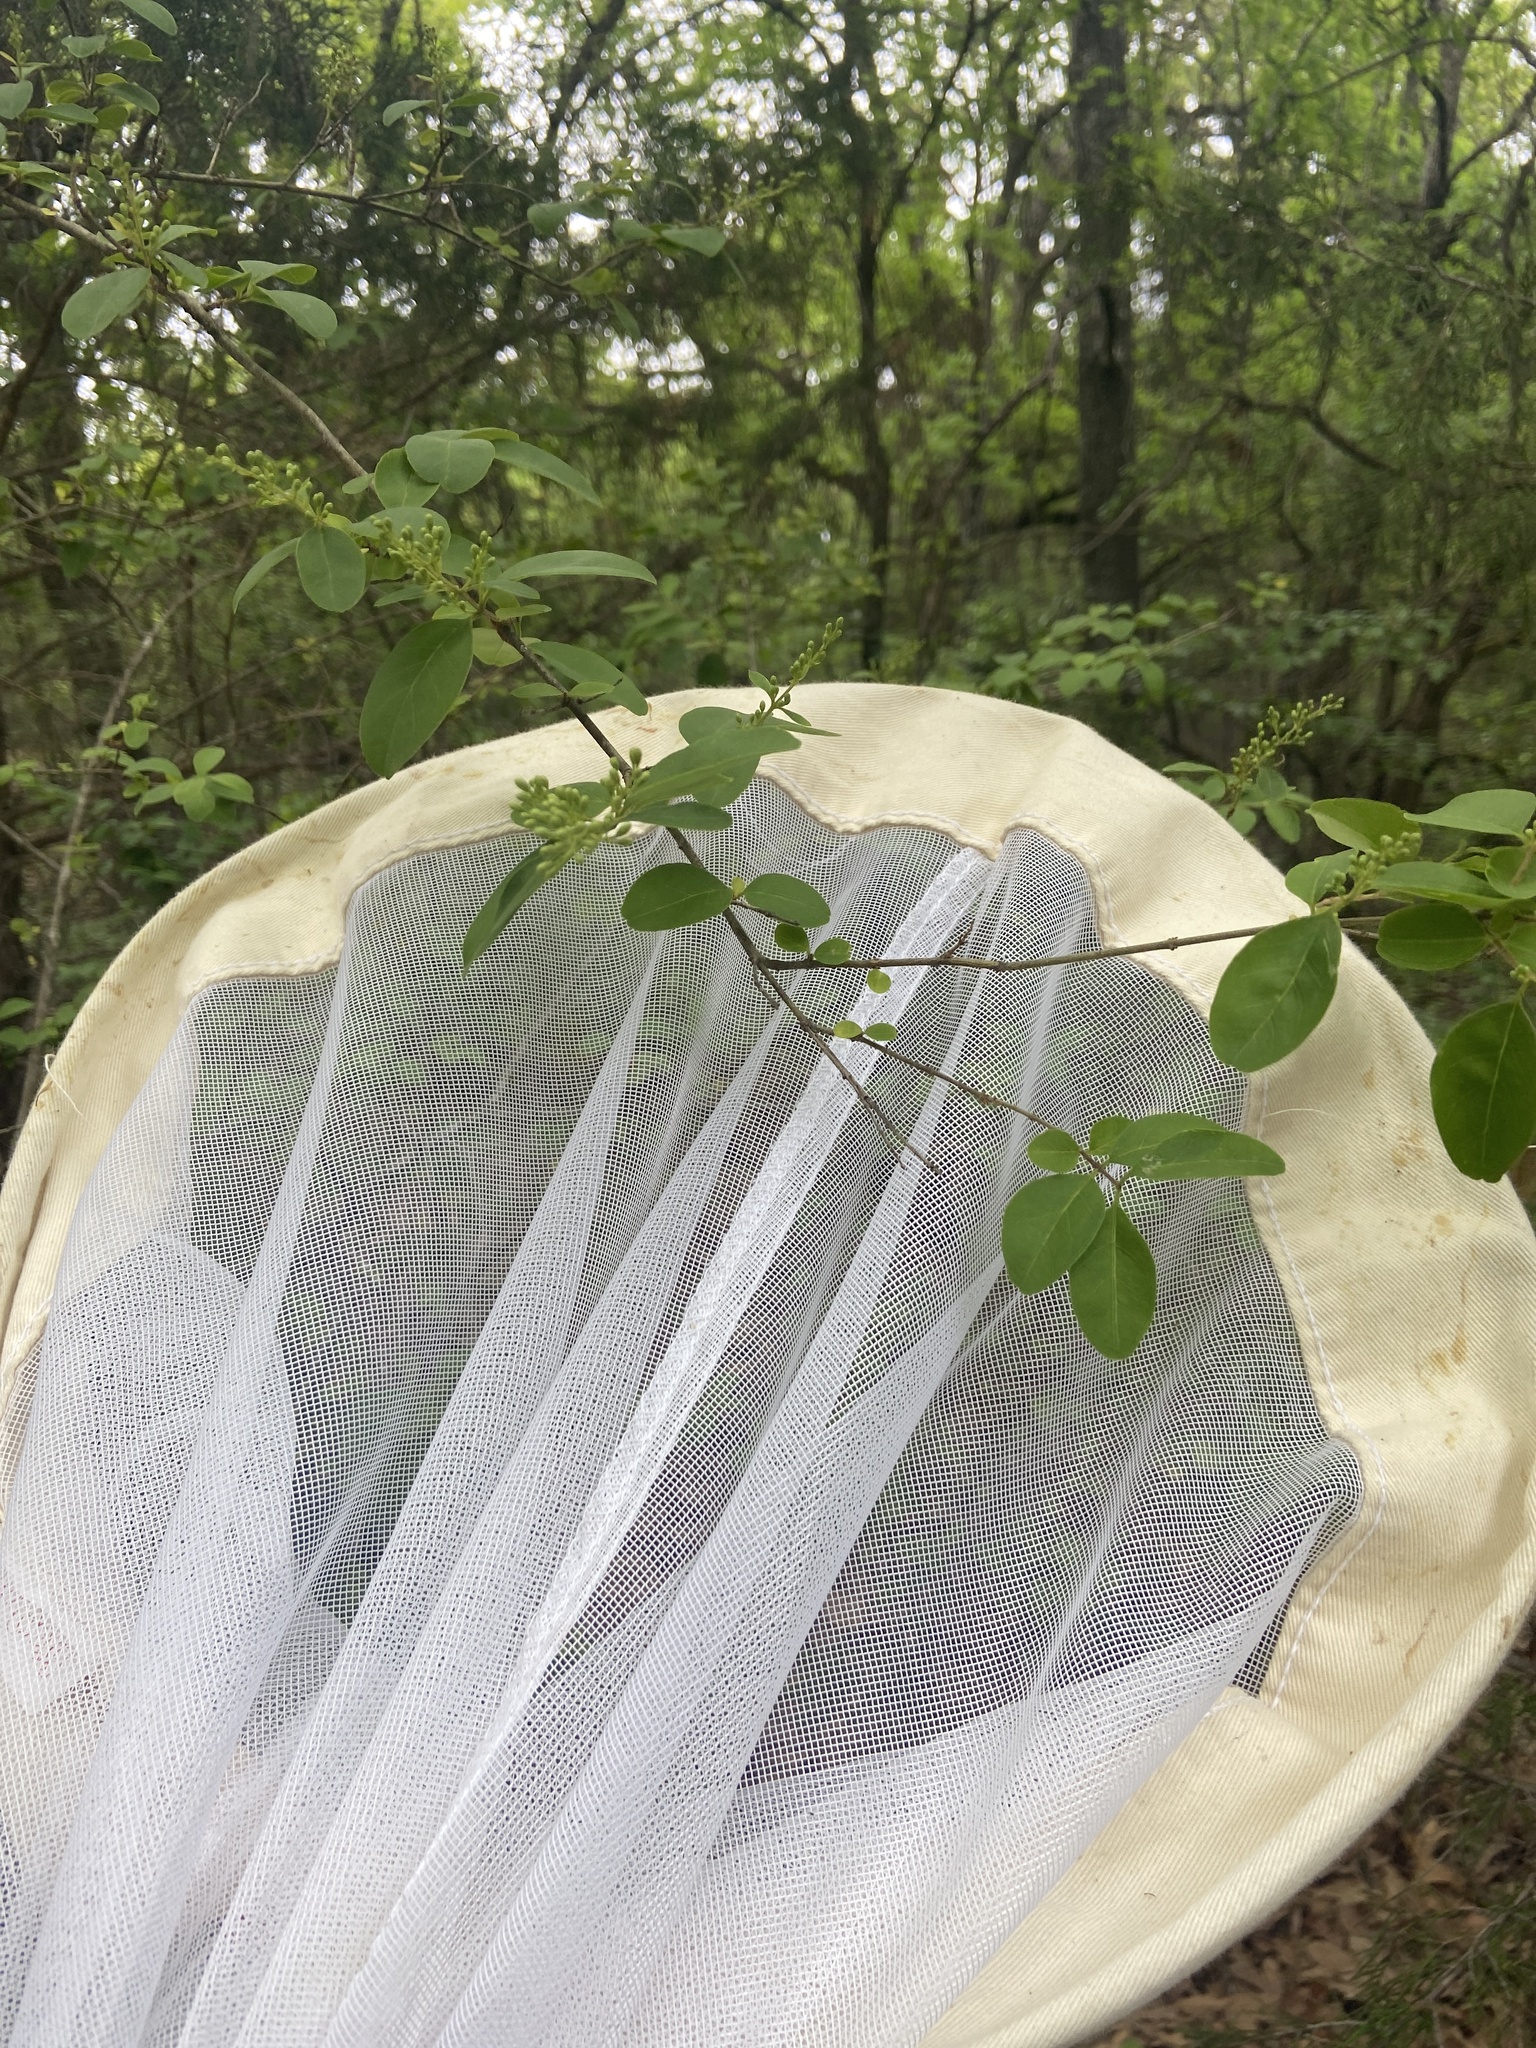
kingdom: Plantae
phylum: Tracheophyta
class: Magnoliopsida
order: Lamiales
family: Oleaceae
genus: Ligustrum
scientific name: Ligustrum sinense
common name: Chinese privet
